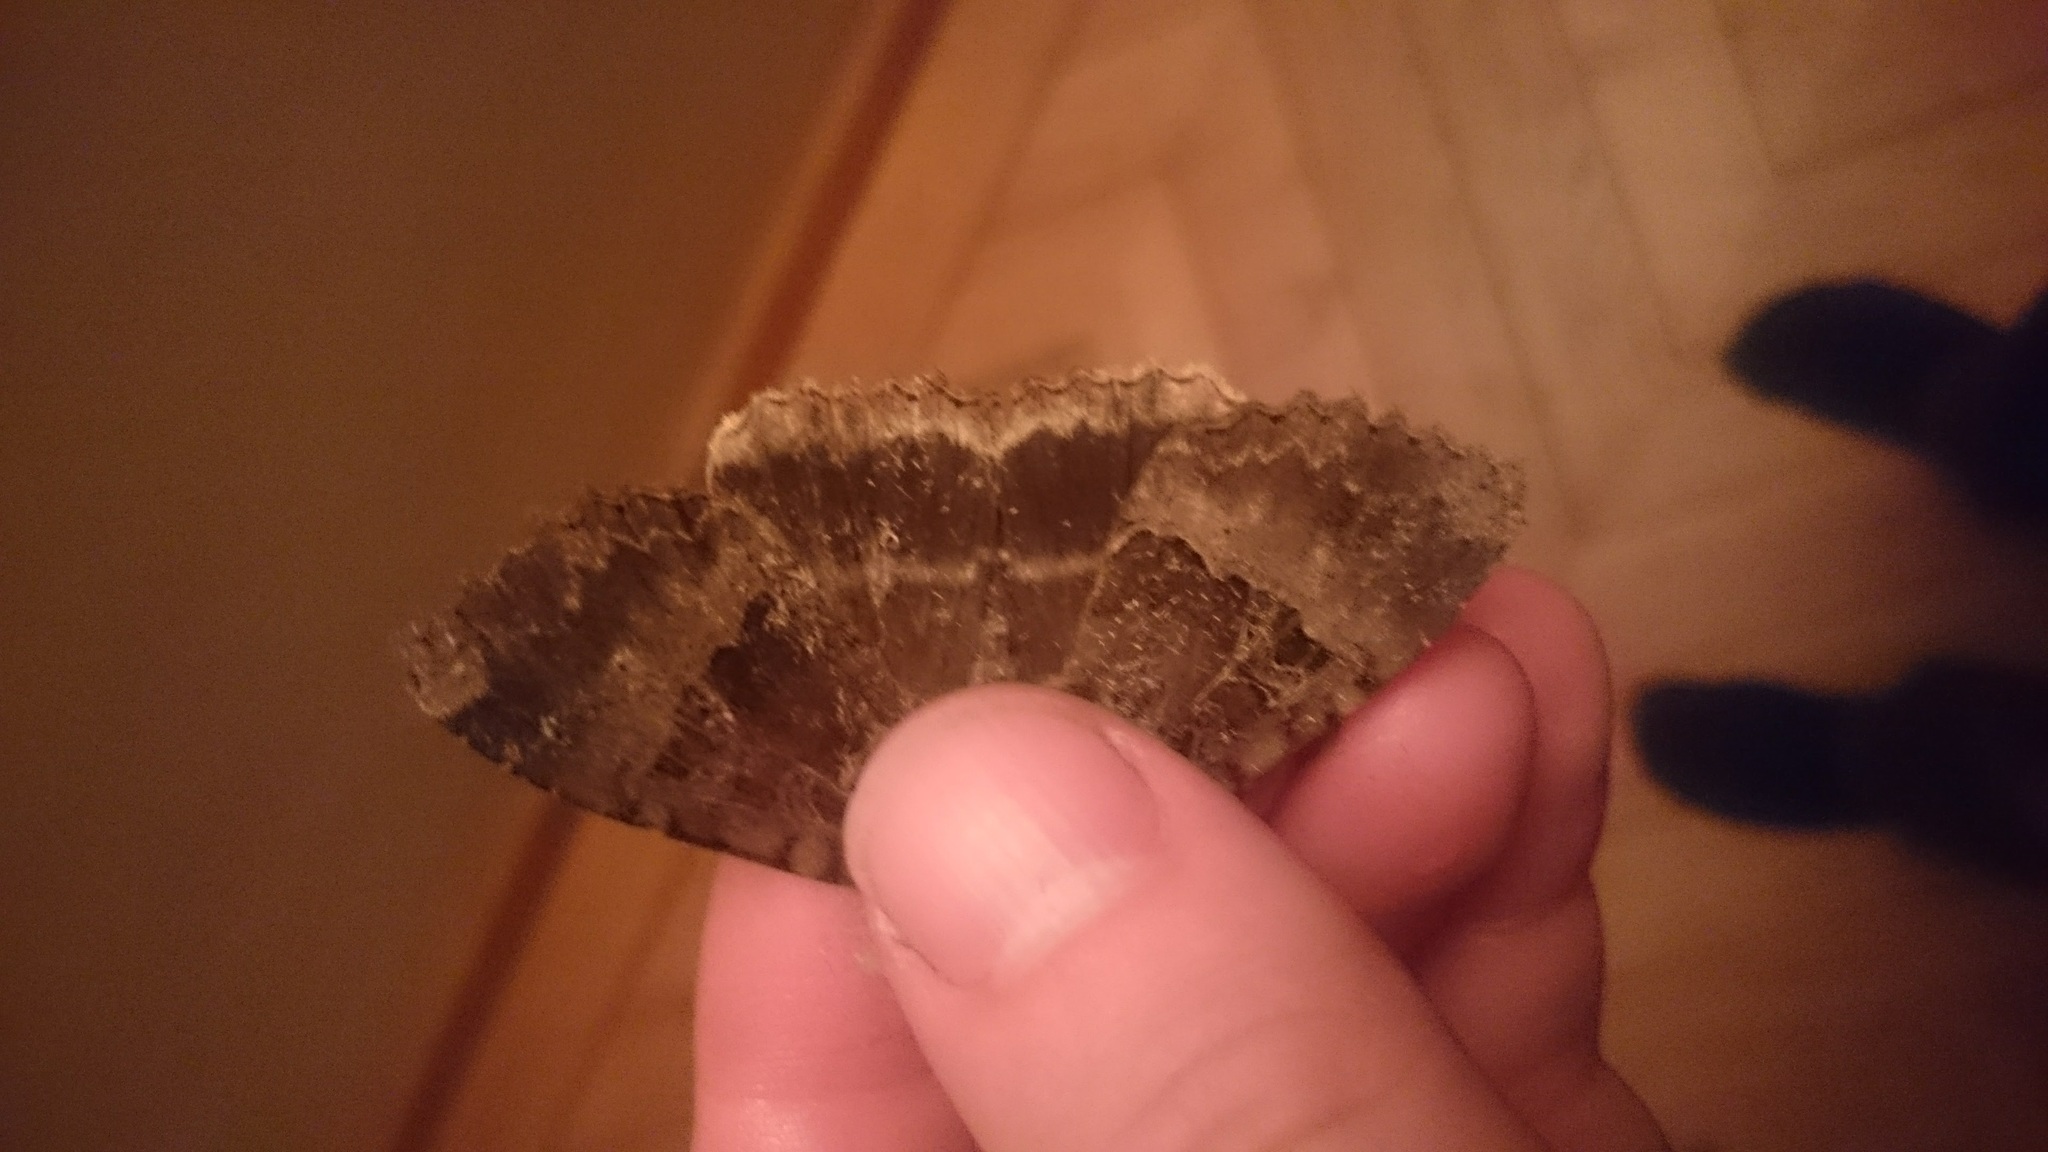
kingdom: Animalia
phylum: Arthropoda
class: Insecta
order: Lepidoptera
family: Noctuidae
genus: Mormo
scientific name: Mormo maura
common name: Old lady
